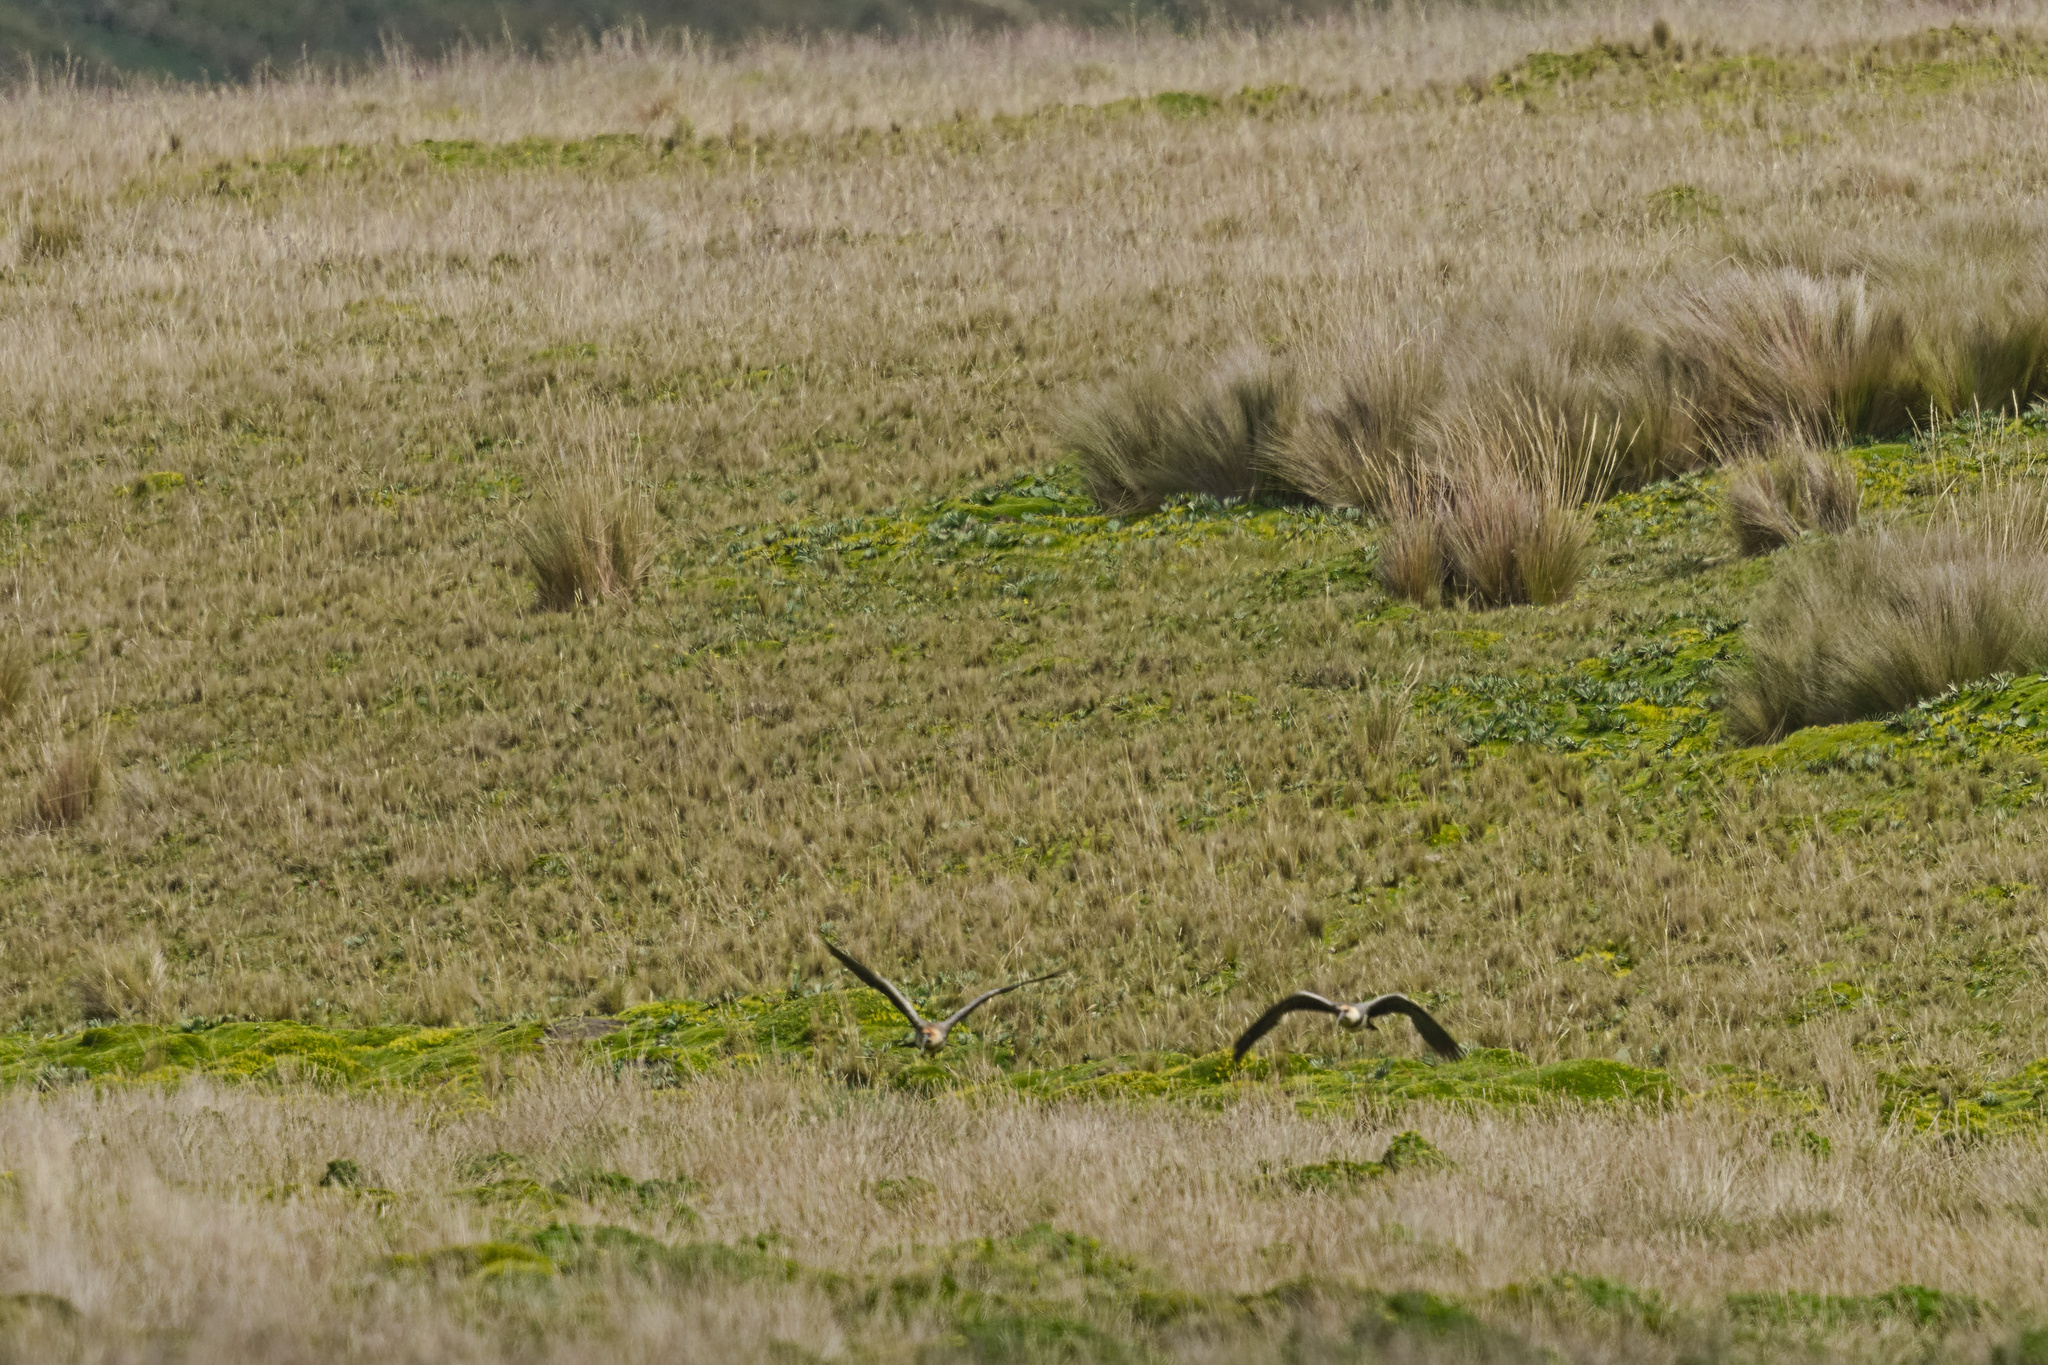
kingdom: Animalia
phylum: Chordata
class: Aves
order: Pelecaniformes
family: Threskiornithidae
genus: Theristicus
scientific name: Theristicus melanopis
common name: Black-faced ibis
